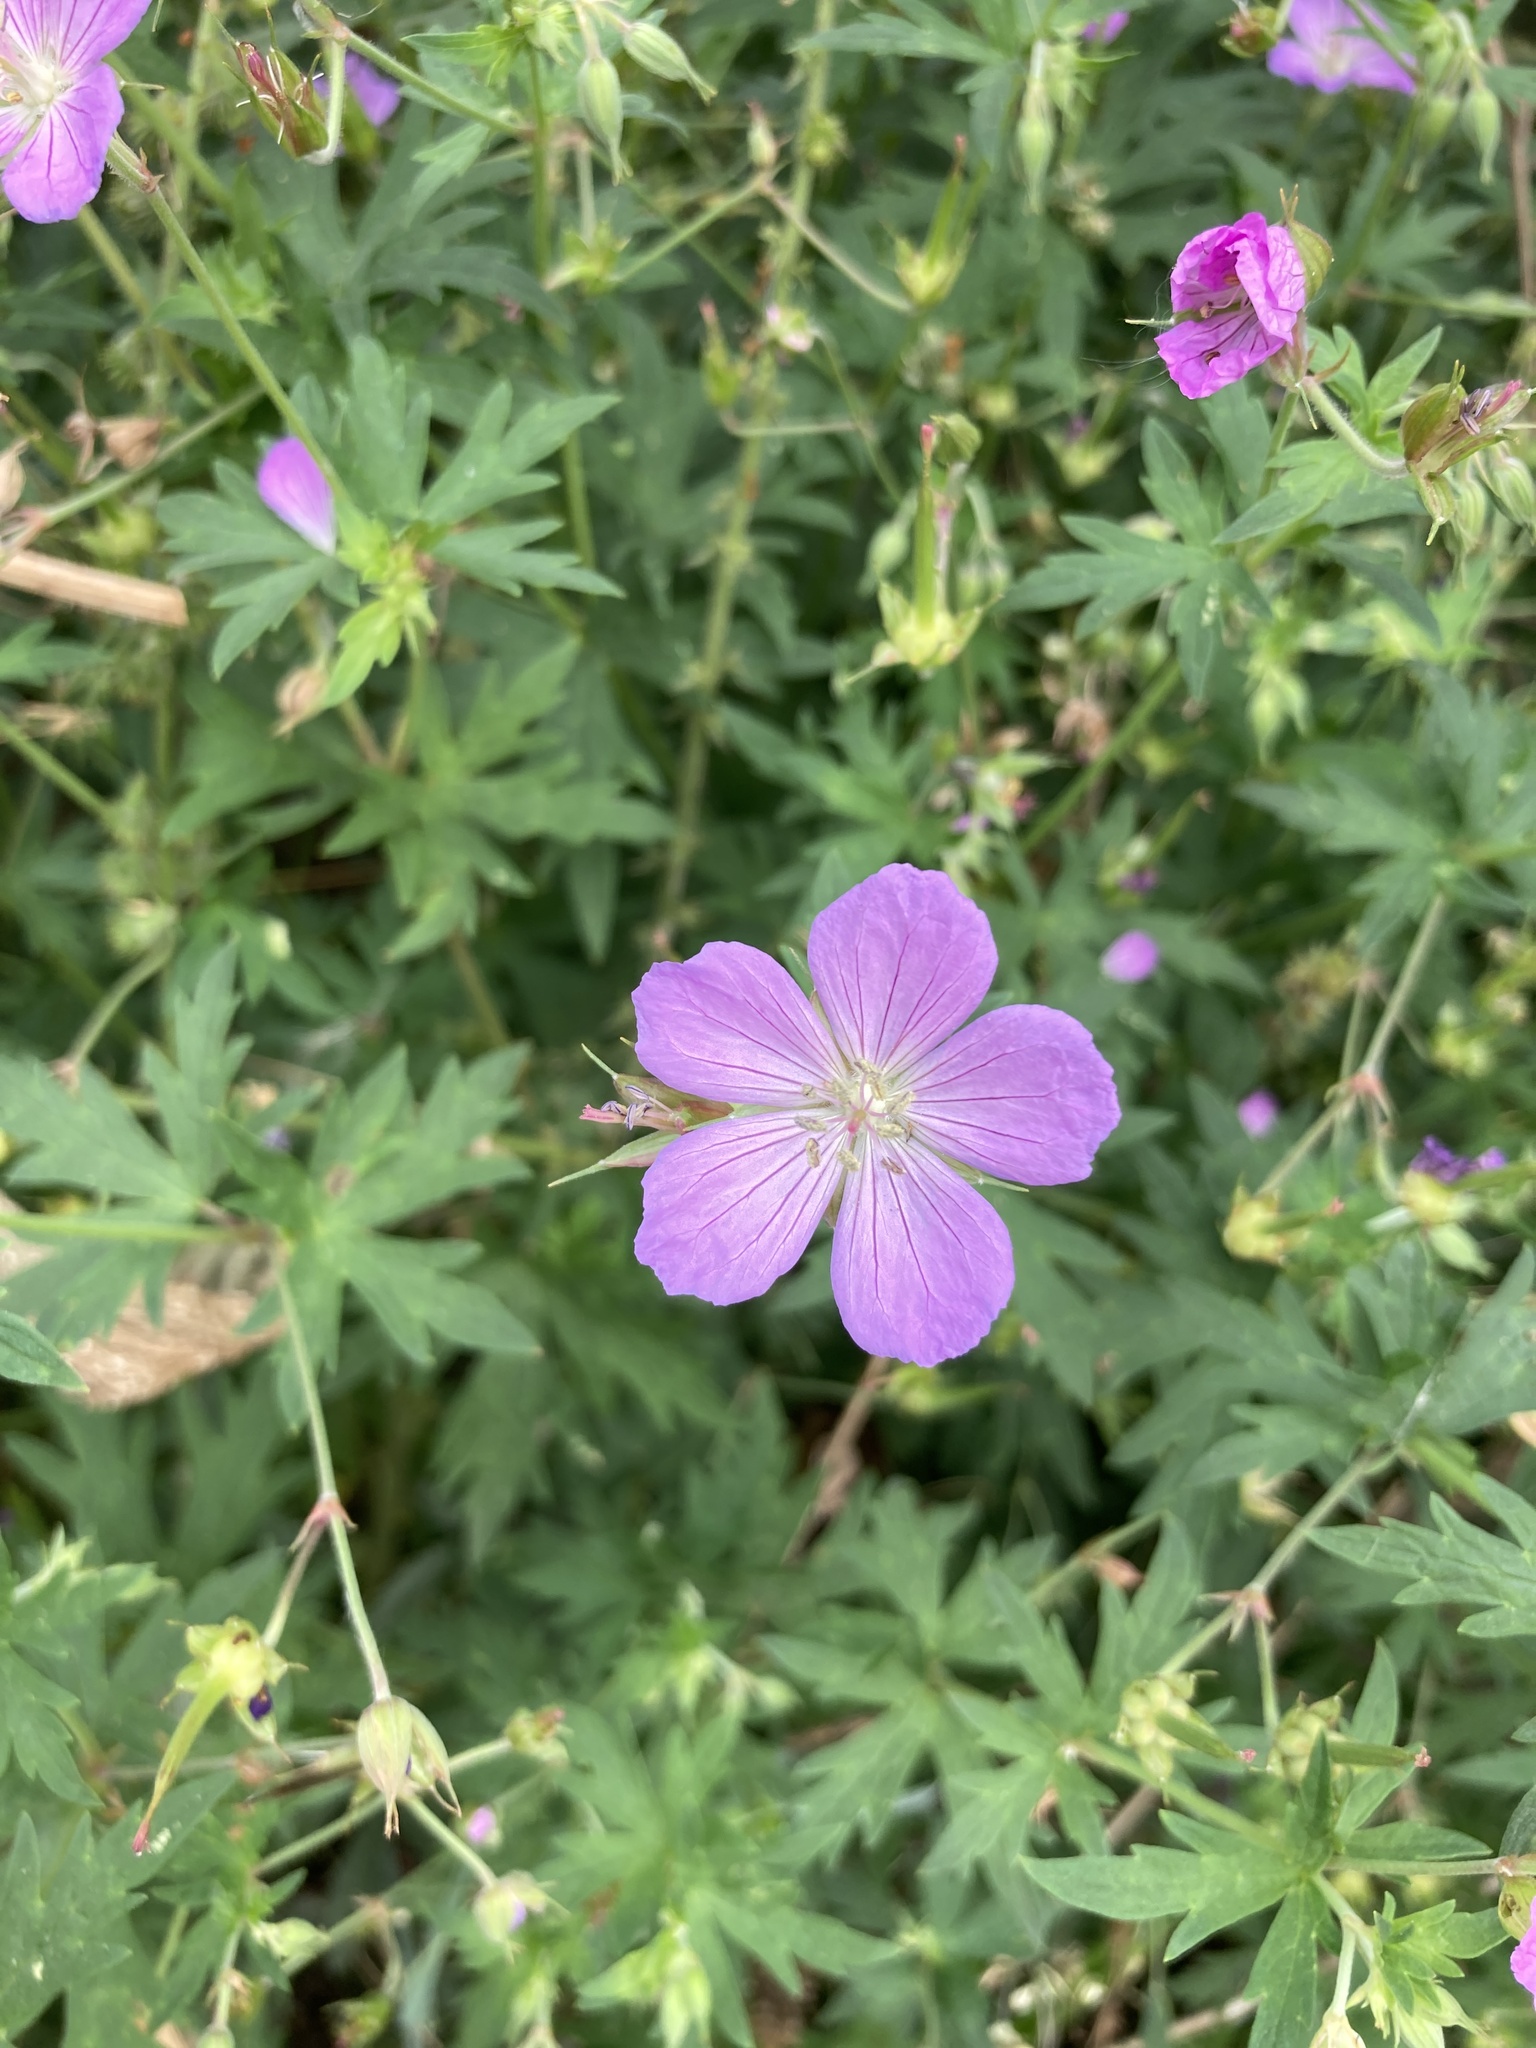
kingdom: Plantae
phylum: Tracheophyta
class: Magnoliopsida
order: Geraniales
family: Geraniaceae
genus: Geranium
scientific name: Geranium collinum
